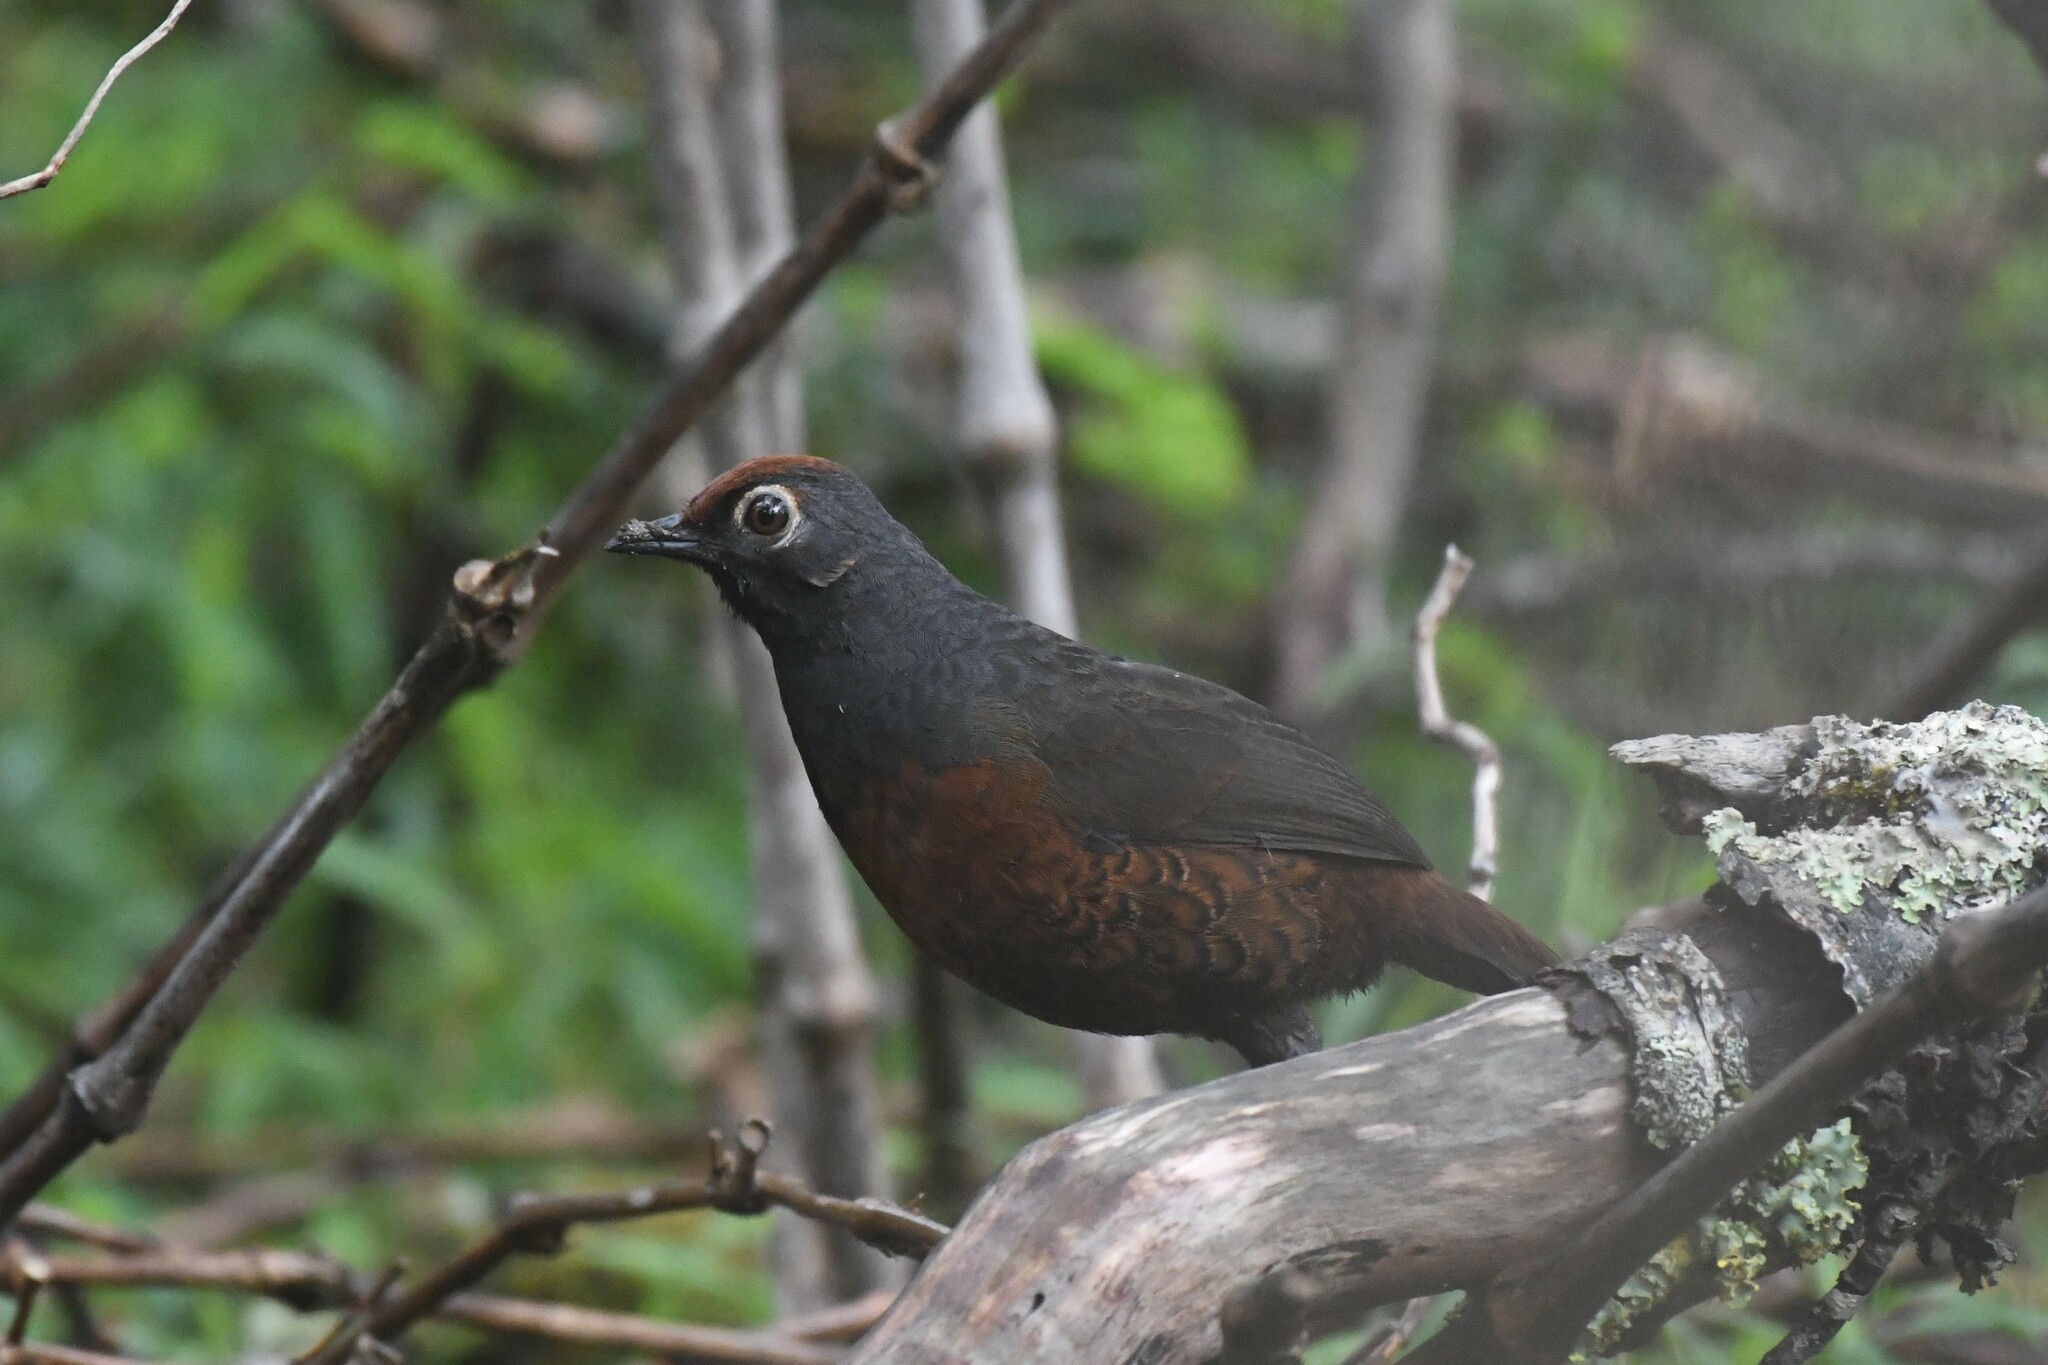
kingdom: Animalia
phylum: Chordata
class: Aves
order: Passeriformes
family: Rhinocryptidae
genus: Pteroptochos
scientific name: Pteroptochos tarnii
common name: Black-throated huet-huet
